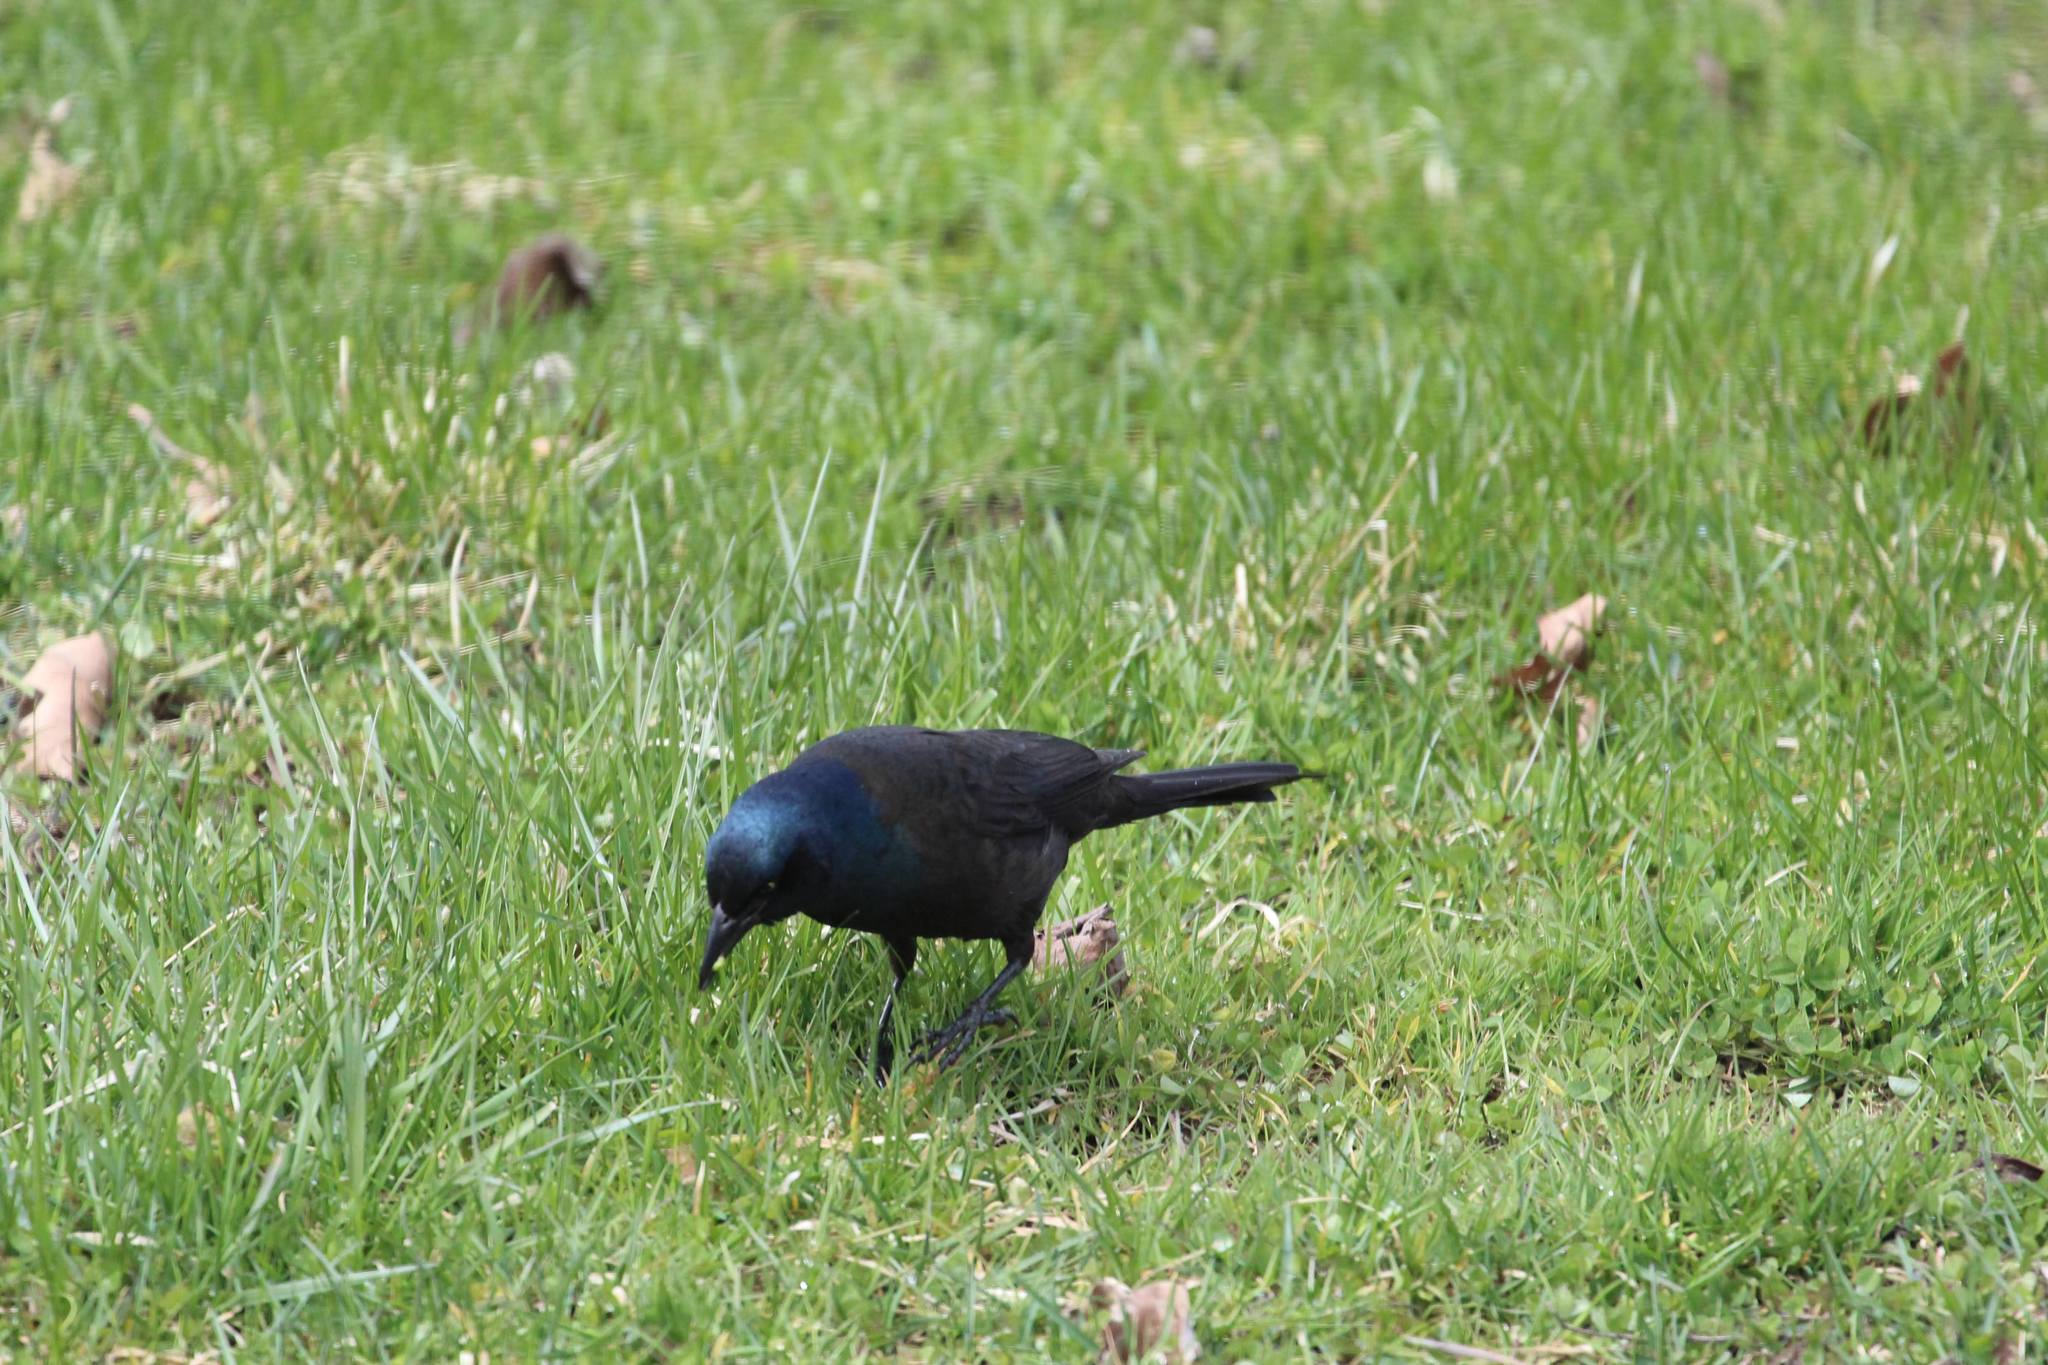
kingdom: Animalia
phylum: Chordata
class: Aves
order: Passeriformes
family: Icteridae
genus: Quiscalus
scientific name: Quiscalus quiscula
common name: Common grackle
